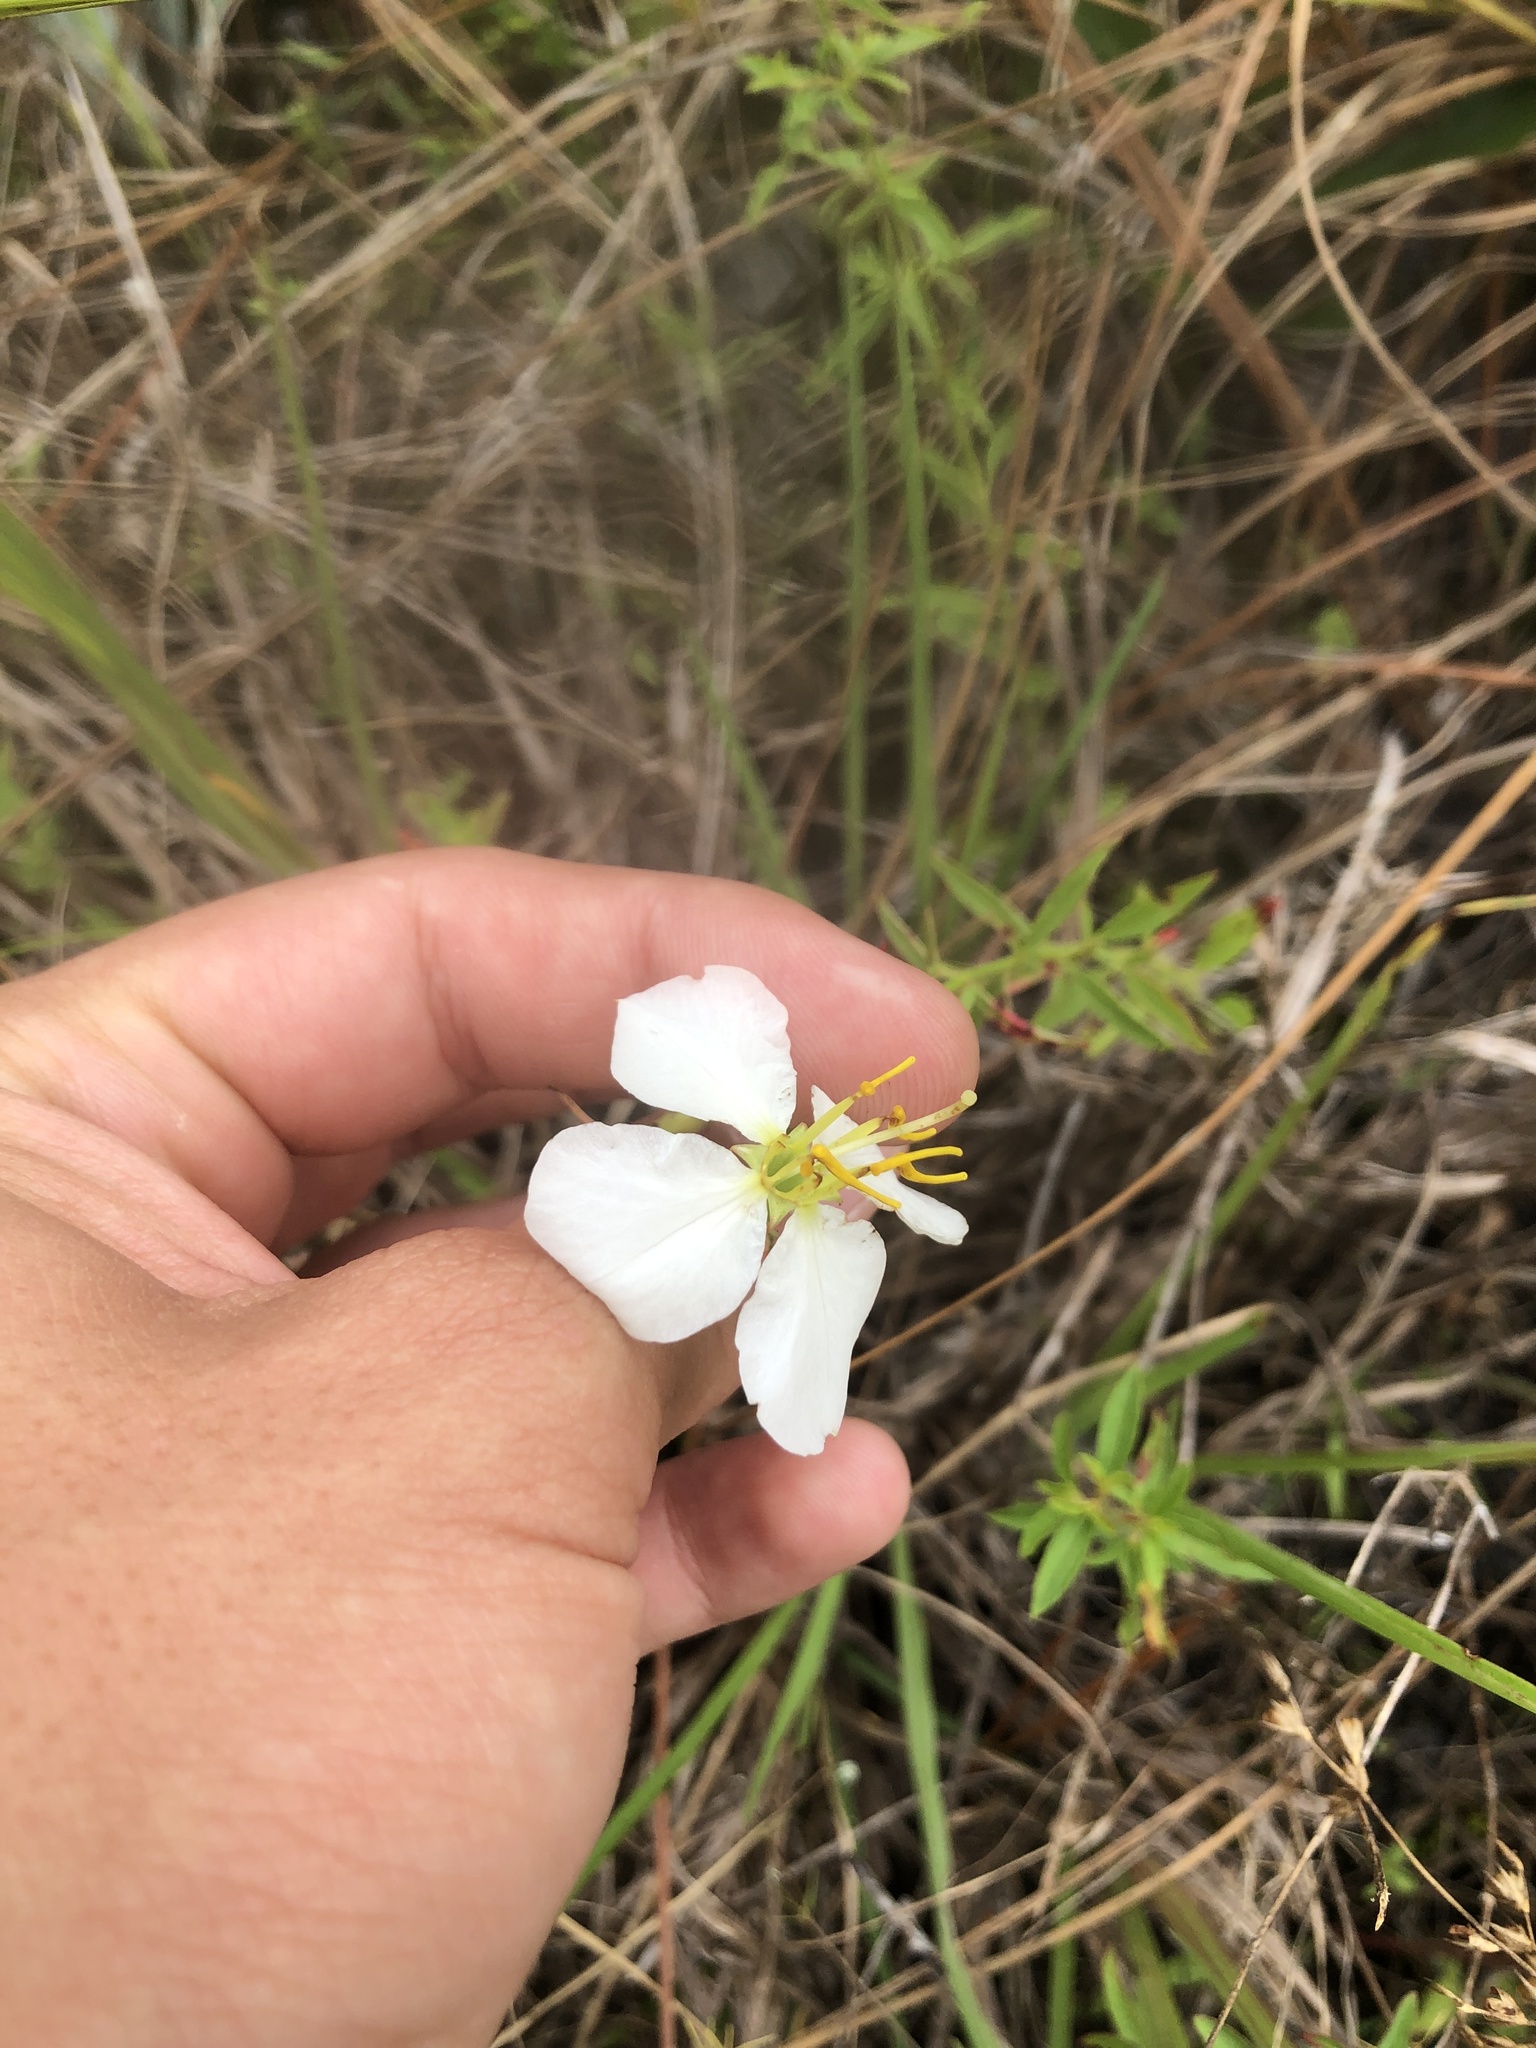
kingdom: Plantae
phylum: Tracheophyta
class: Magnoliopsida
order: Myrtales
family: Melastomataceae
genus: Rhexia
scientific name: Rhexia mariana
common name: Dull meadow-pitcher
